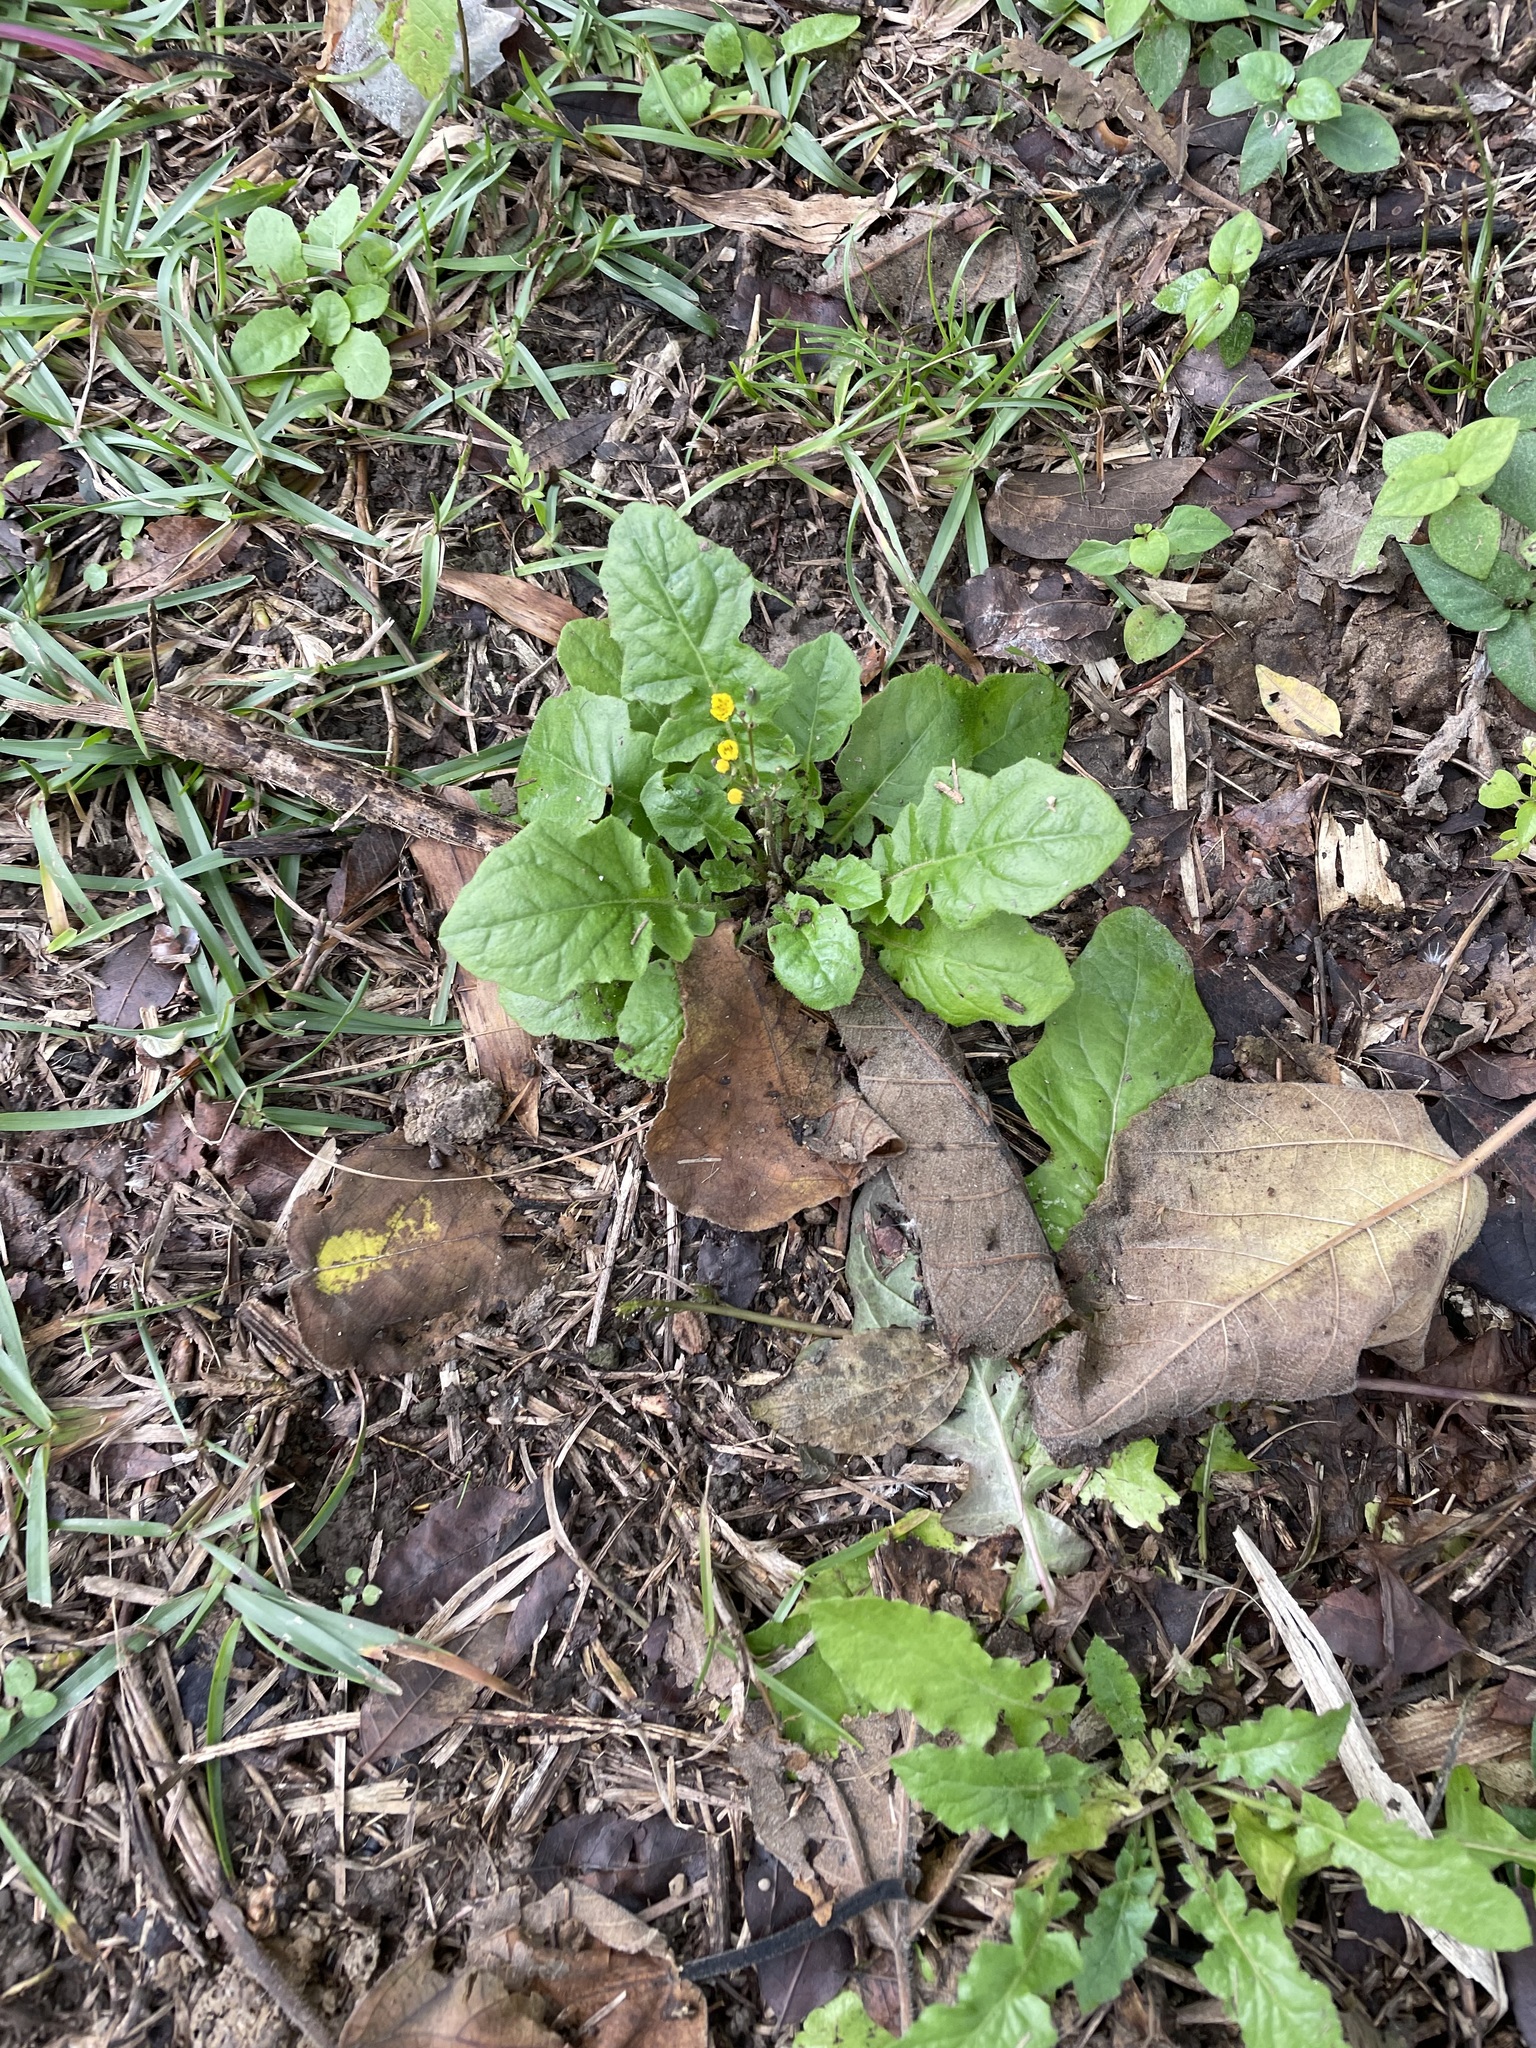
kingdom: Plantae
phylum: Tracheophyta
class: Magnoliopsida
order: Asterales
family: Asteraceae
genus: Youngia
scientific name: Youngia japonica
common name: Oriental false hawksbeard
